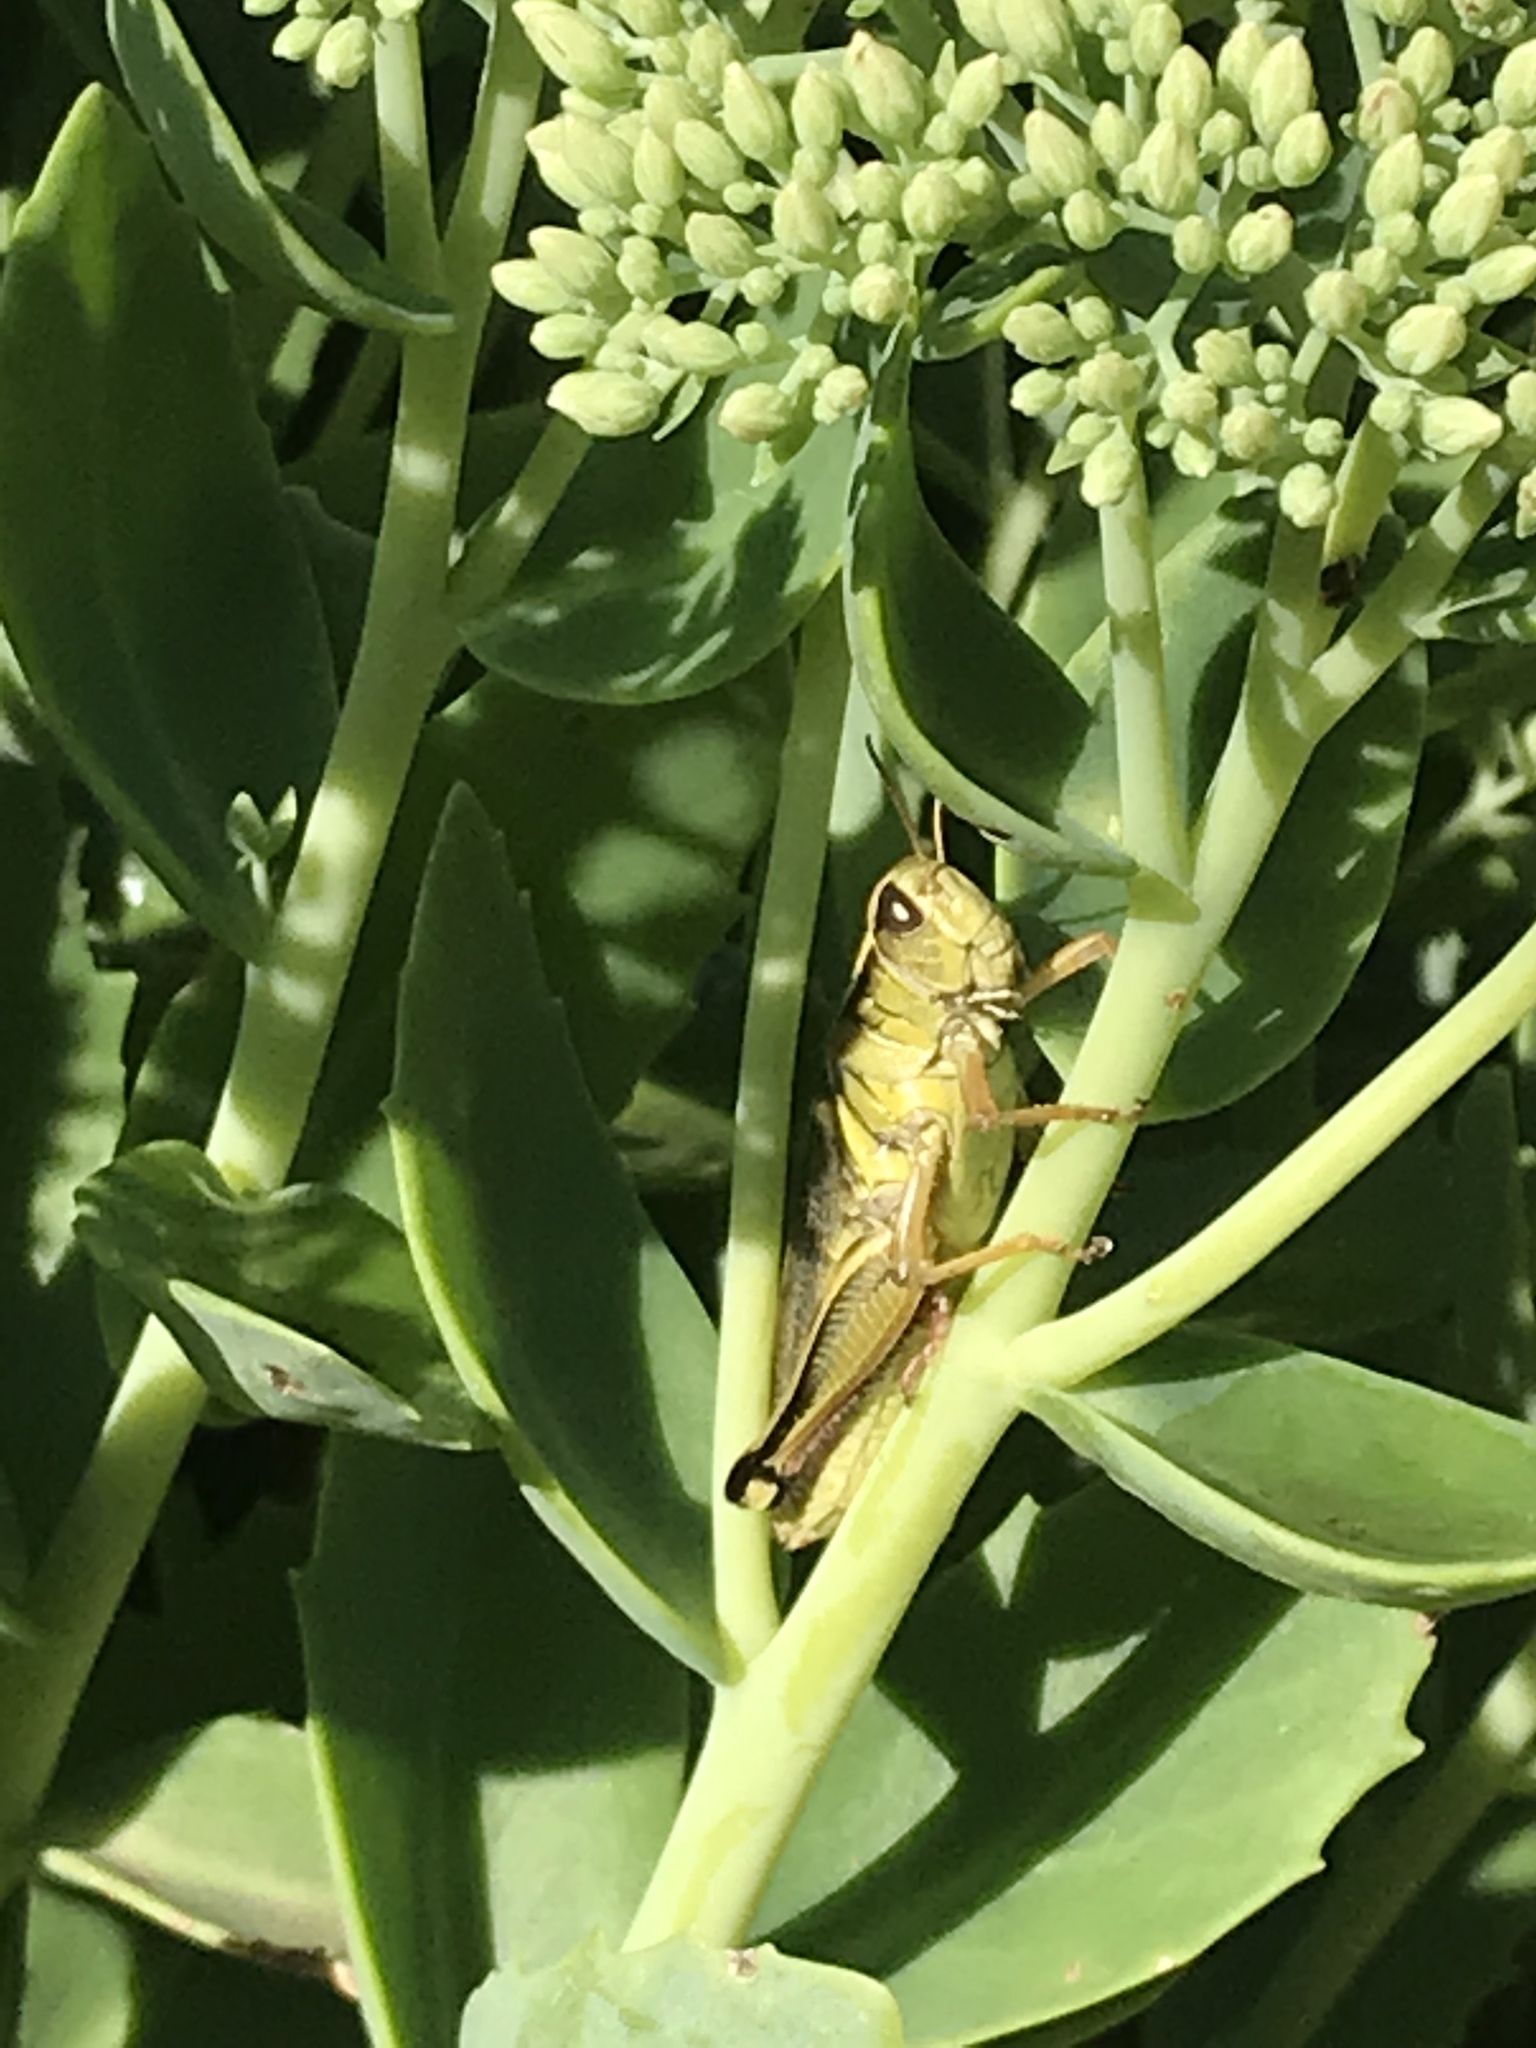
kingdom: Animalia
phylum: Arthropoda
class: Insecta
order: Orthoptera
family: Acrididae
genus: Melanoplus
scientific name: Melanoplus bivittatus
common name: Two-striped grasshopper
